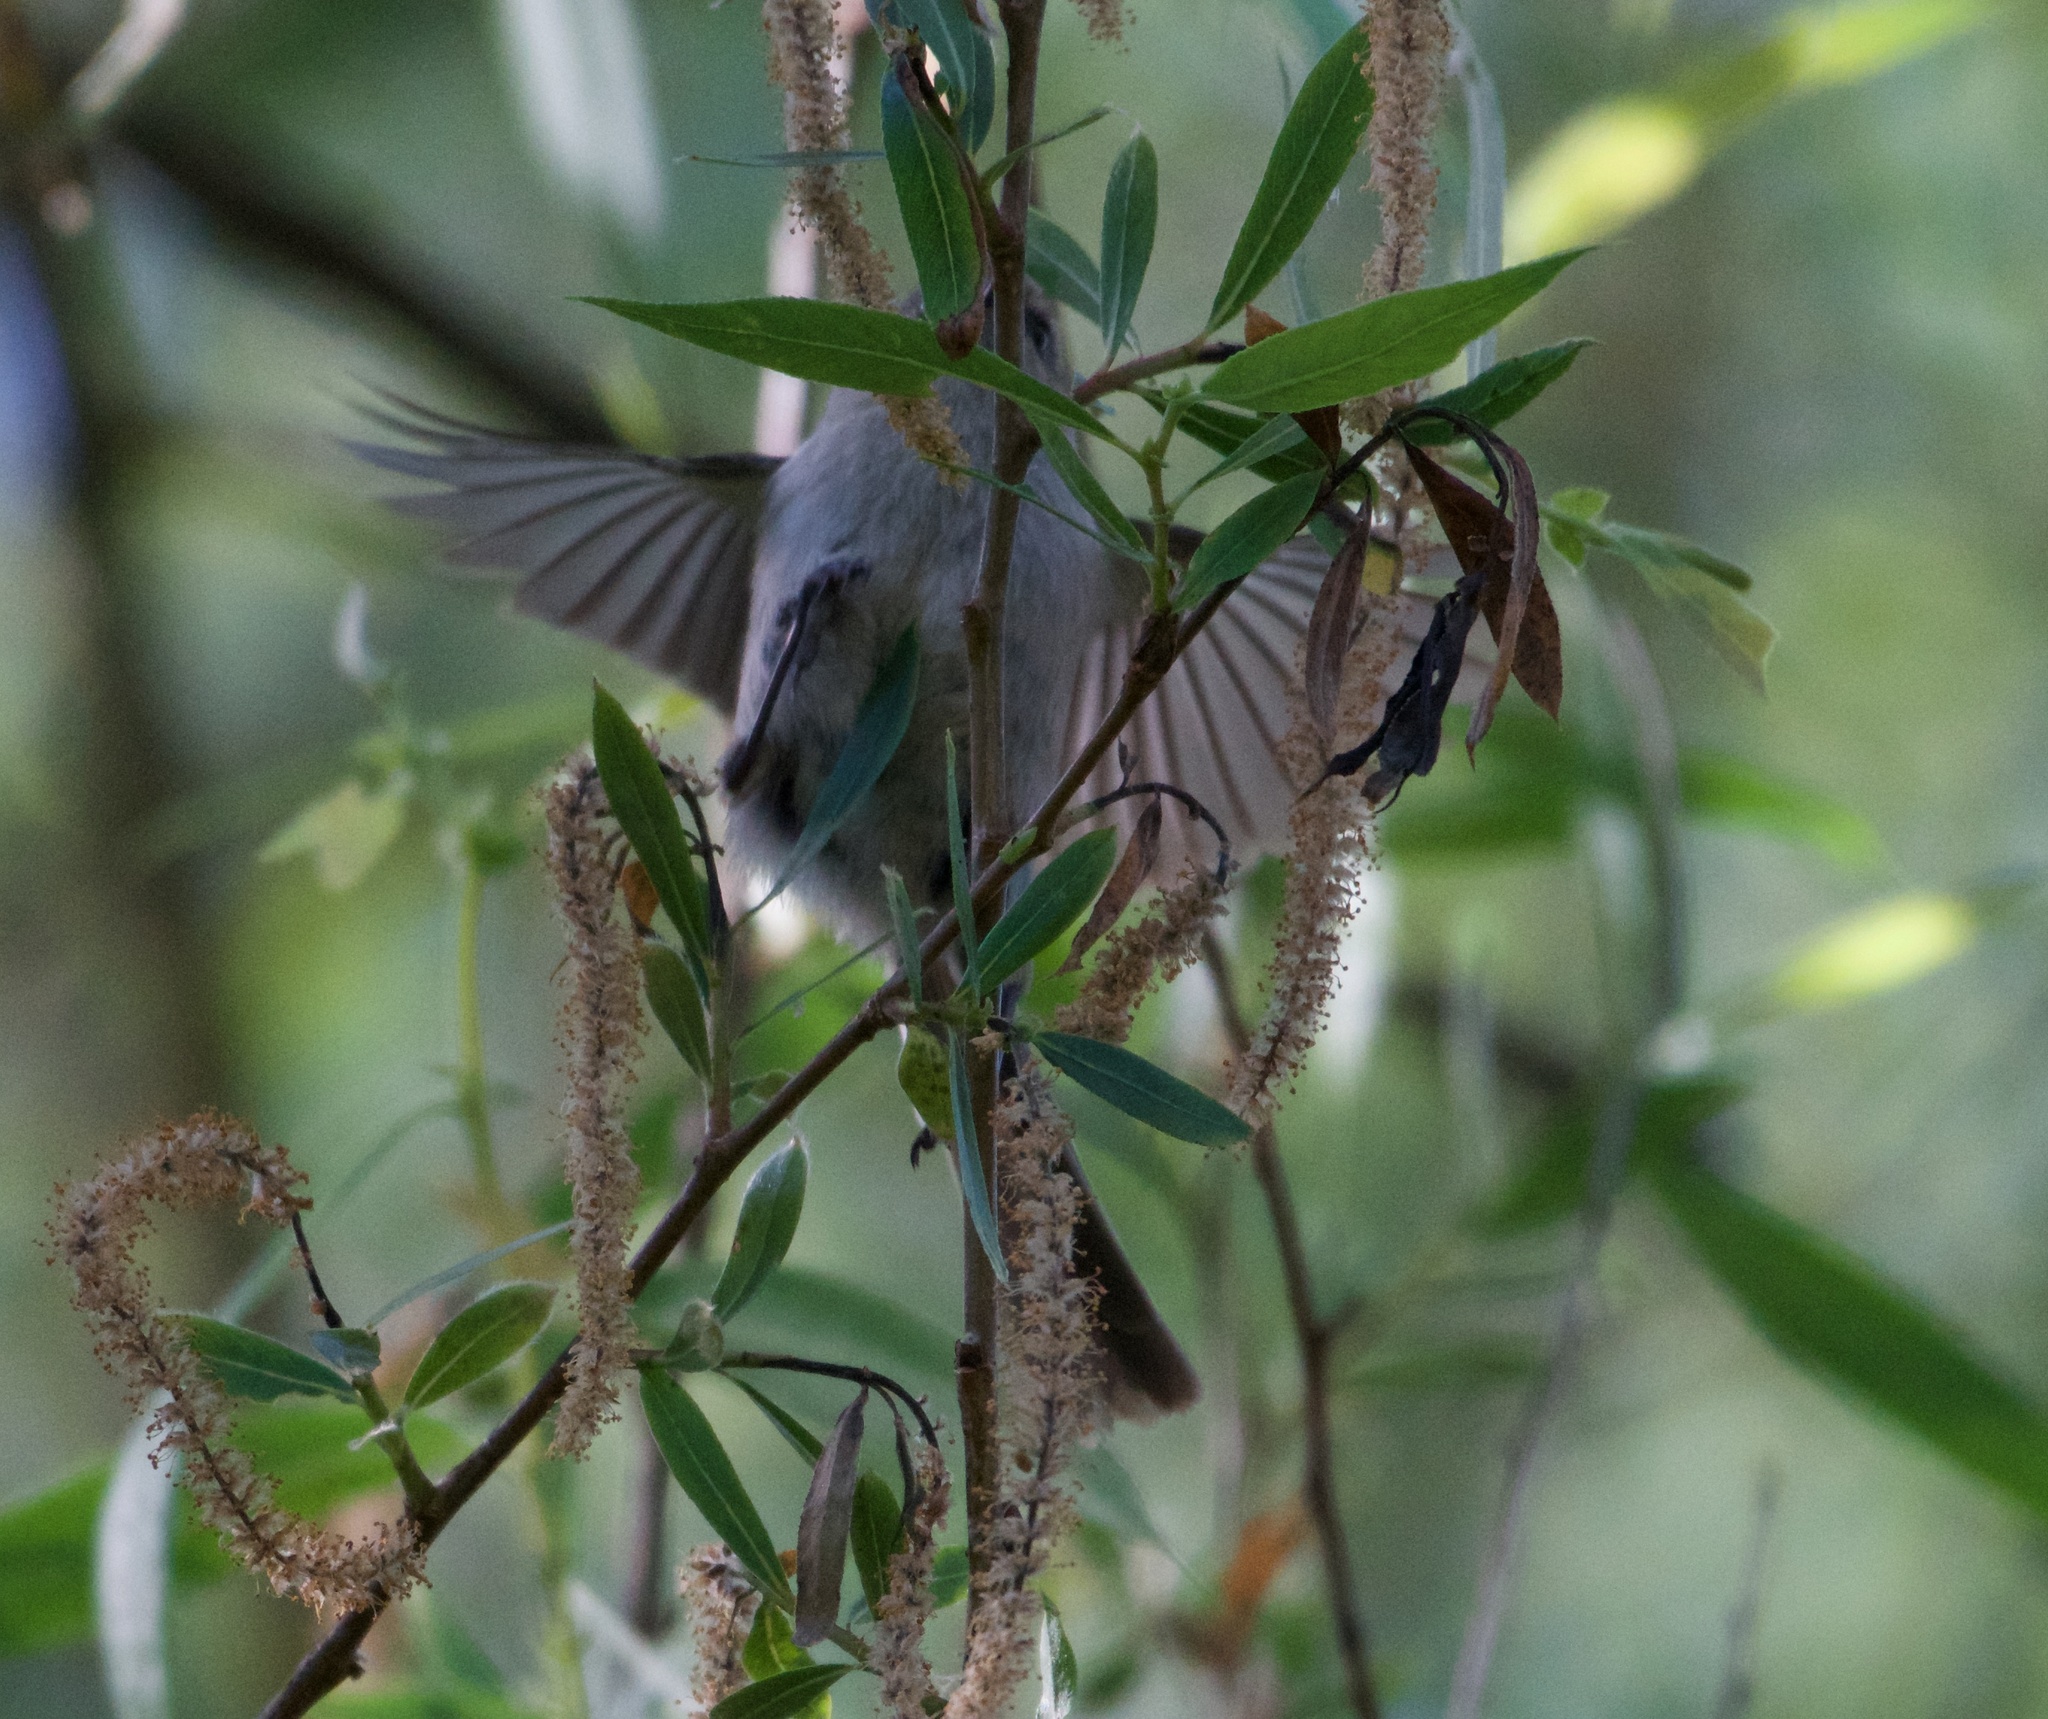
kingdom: Animalia
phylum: Chordata
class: Aves
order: Passeriformes
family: Aegithalidae
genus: Psaltriparus
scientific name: Psaltriparus minimus
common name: American bushtit
